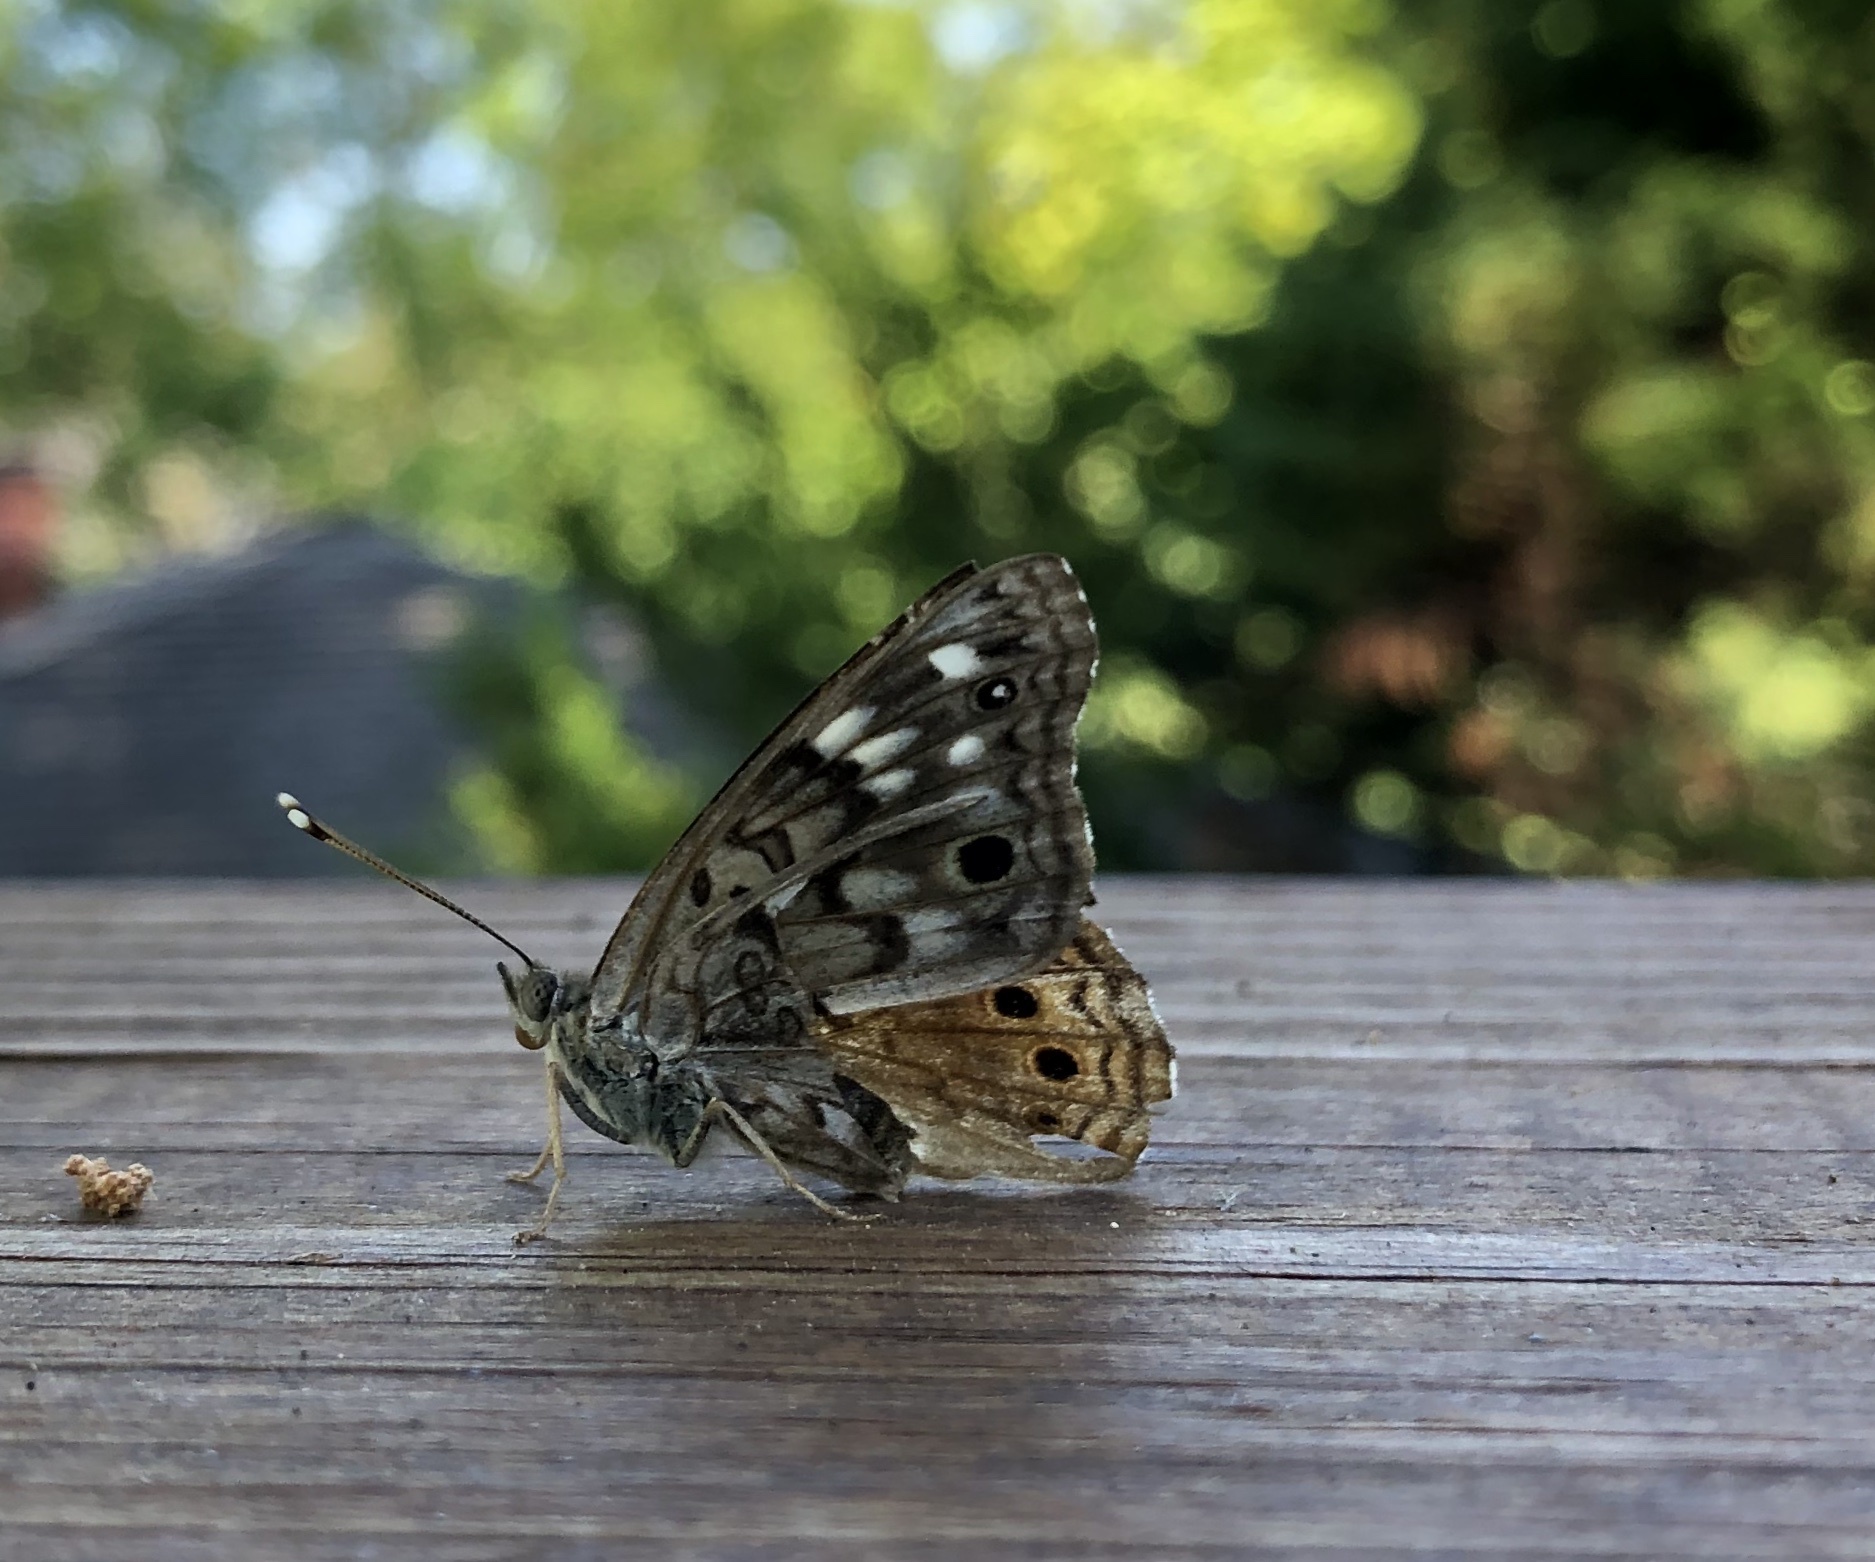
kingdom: Animalia
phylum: Arthropoda
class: Insecta
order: Lepidoptera
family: Nymphalidae
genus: Asterocampa
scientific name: Asterocampa celtis
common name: Hackberry emperor
